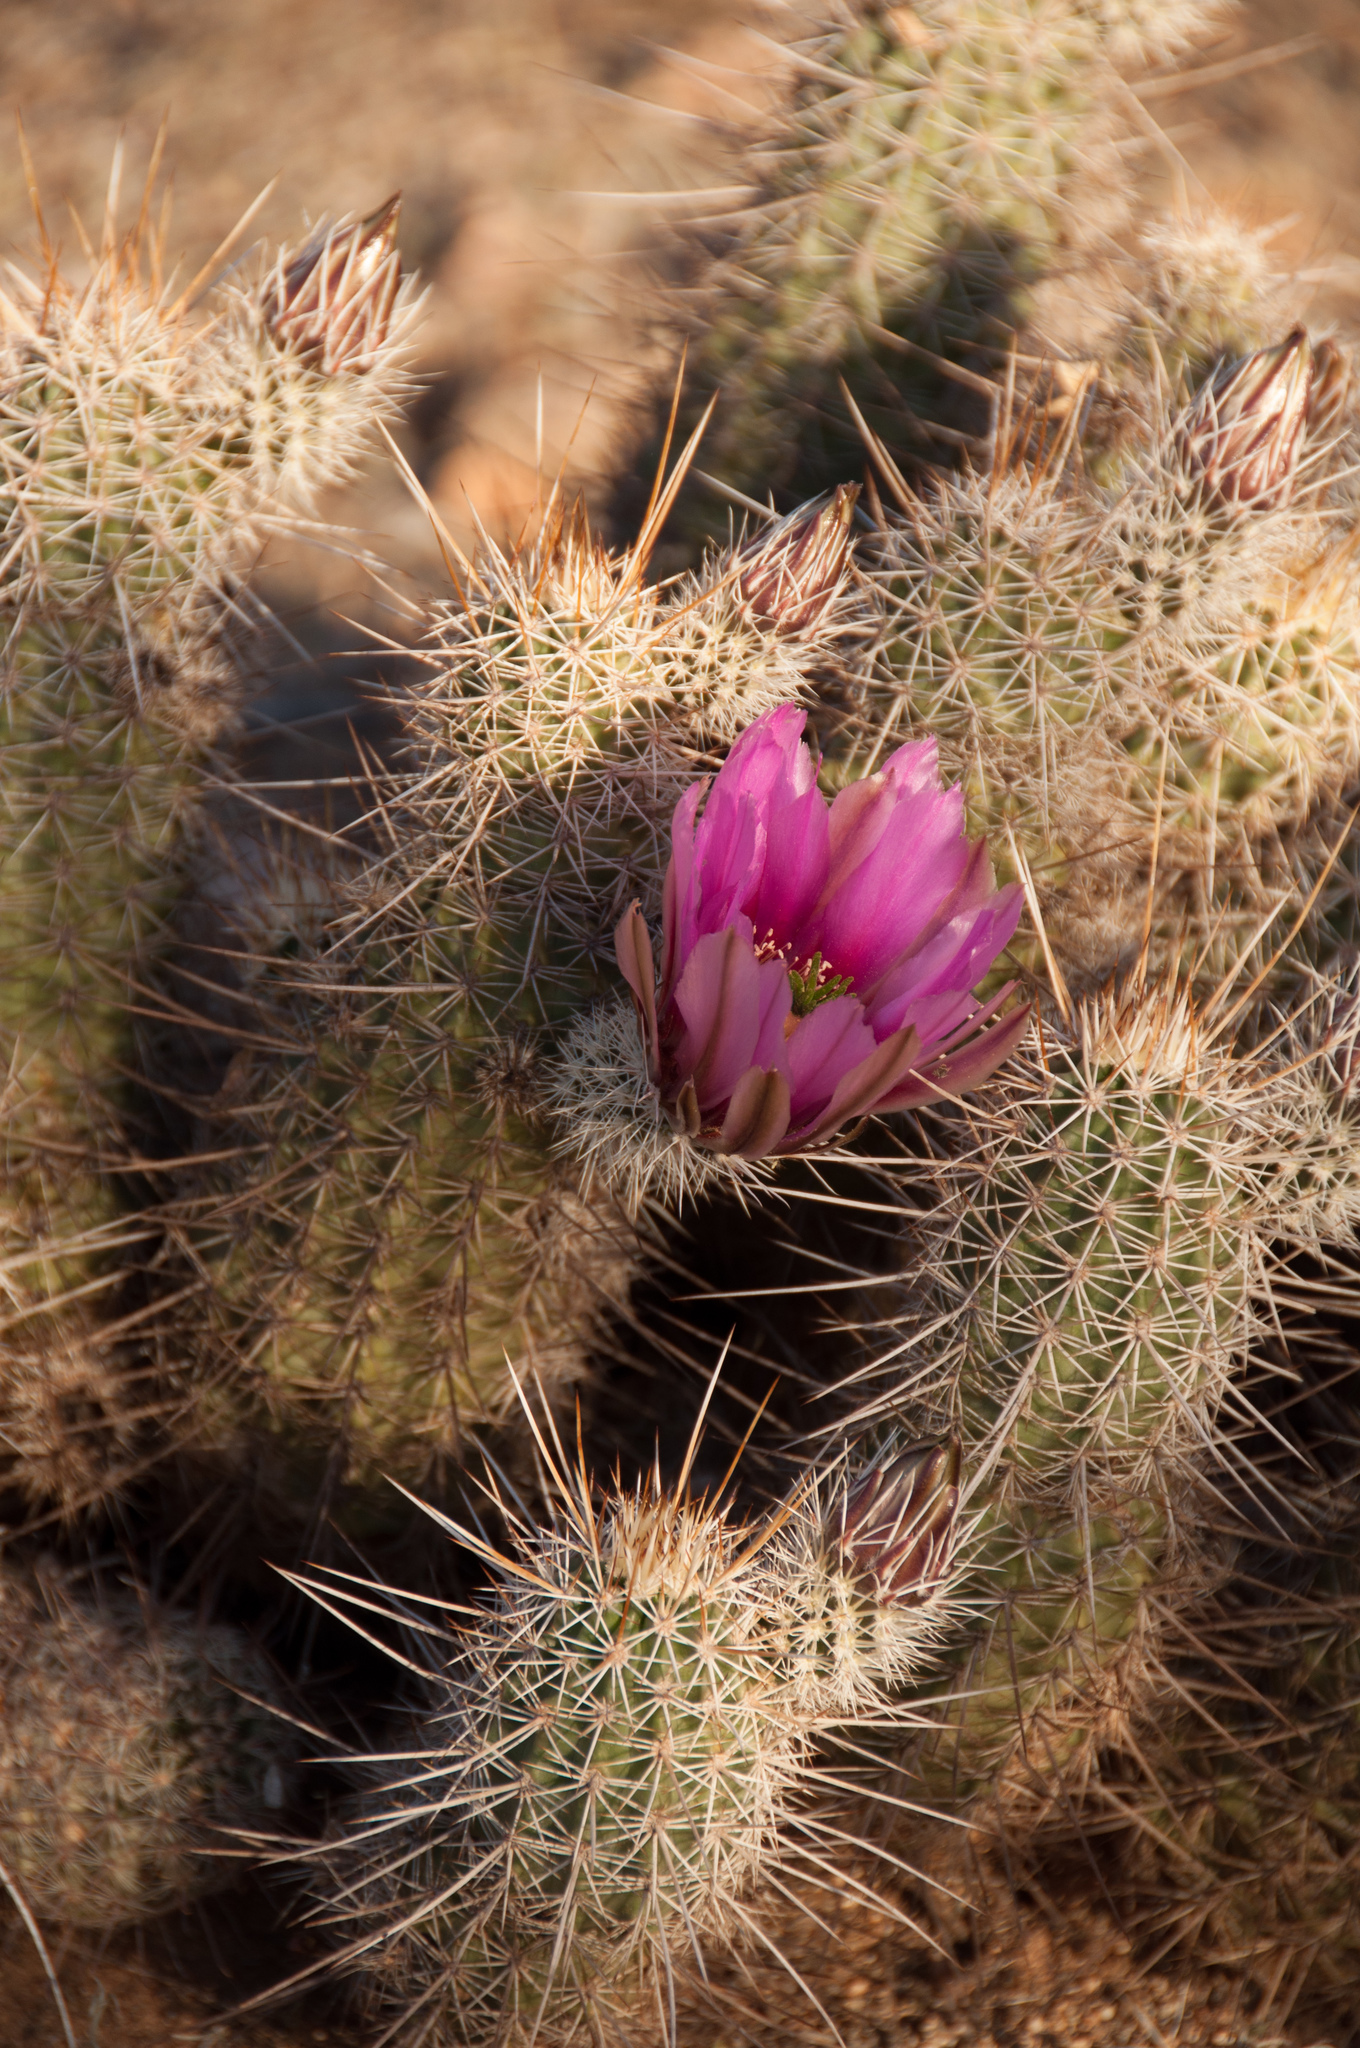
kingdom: Plantae
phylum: Tracheophyta
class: Magnoliopsida
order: Caryophyllales
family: Cactaceae
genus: Echinocereus
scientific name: Echinocereus fasciculatus
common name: Bundle hedgehog
